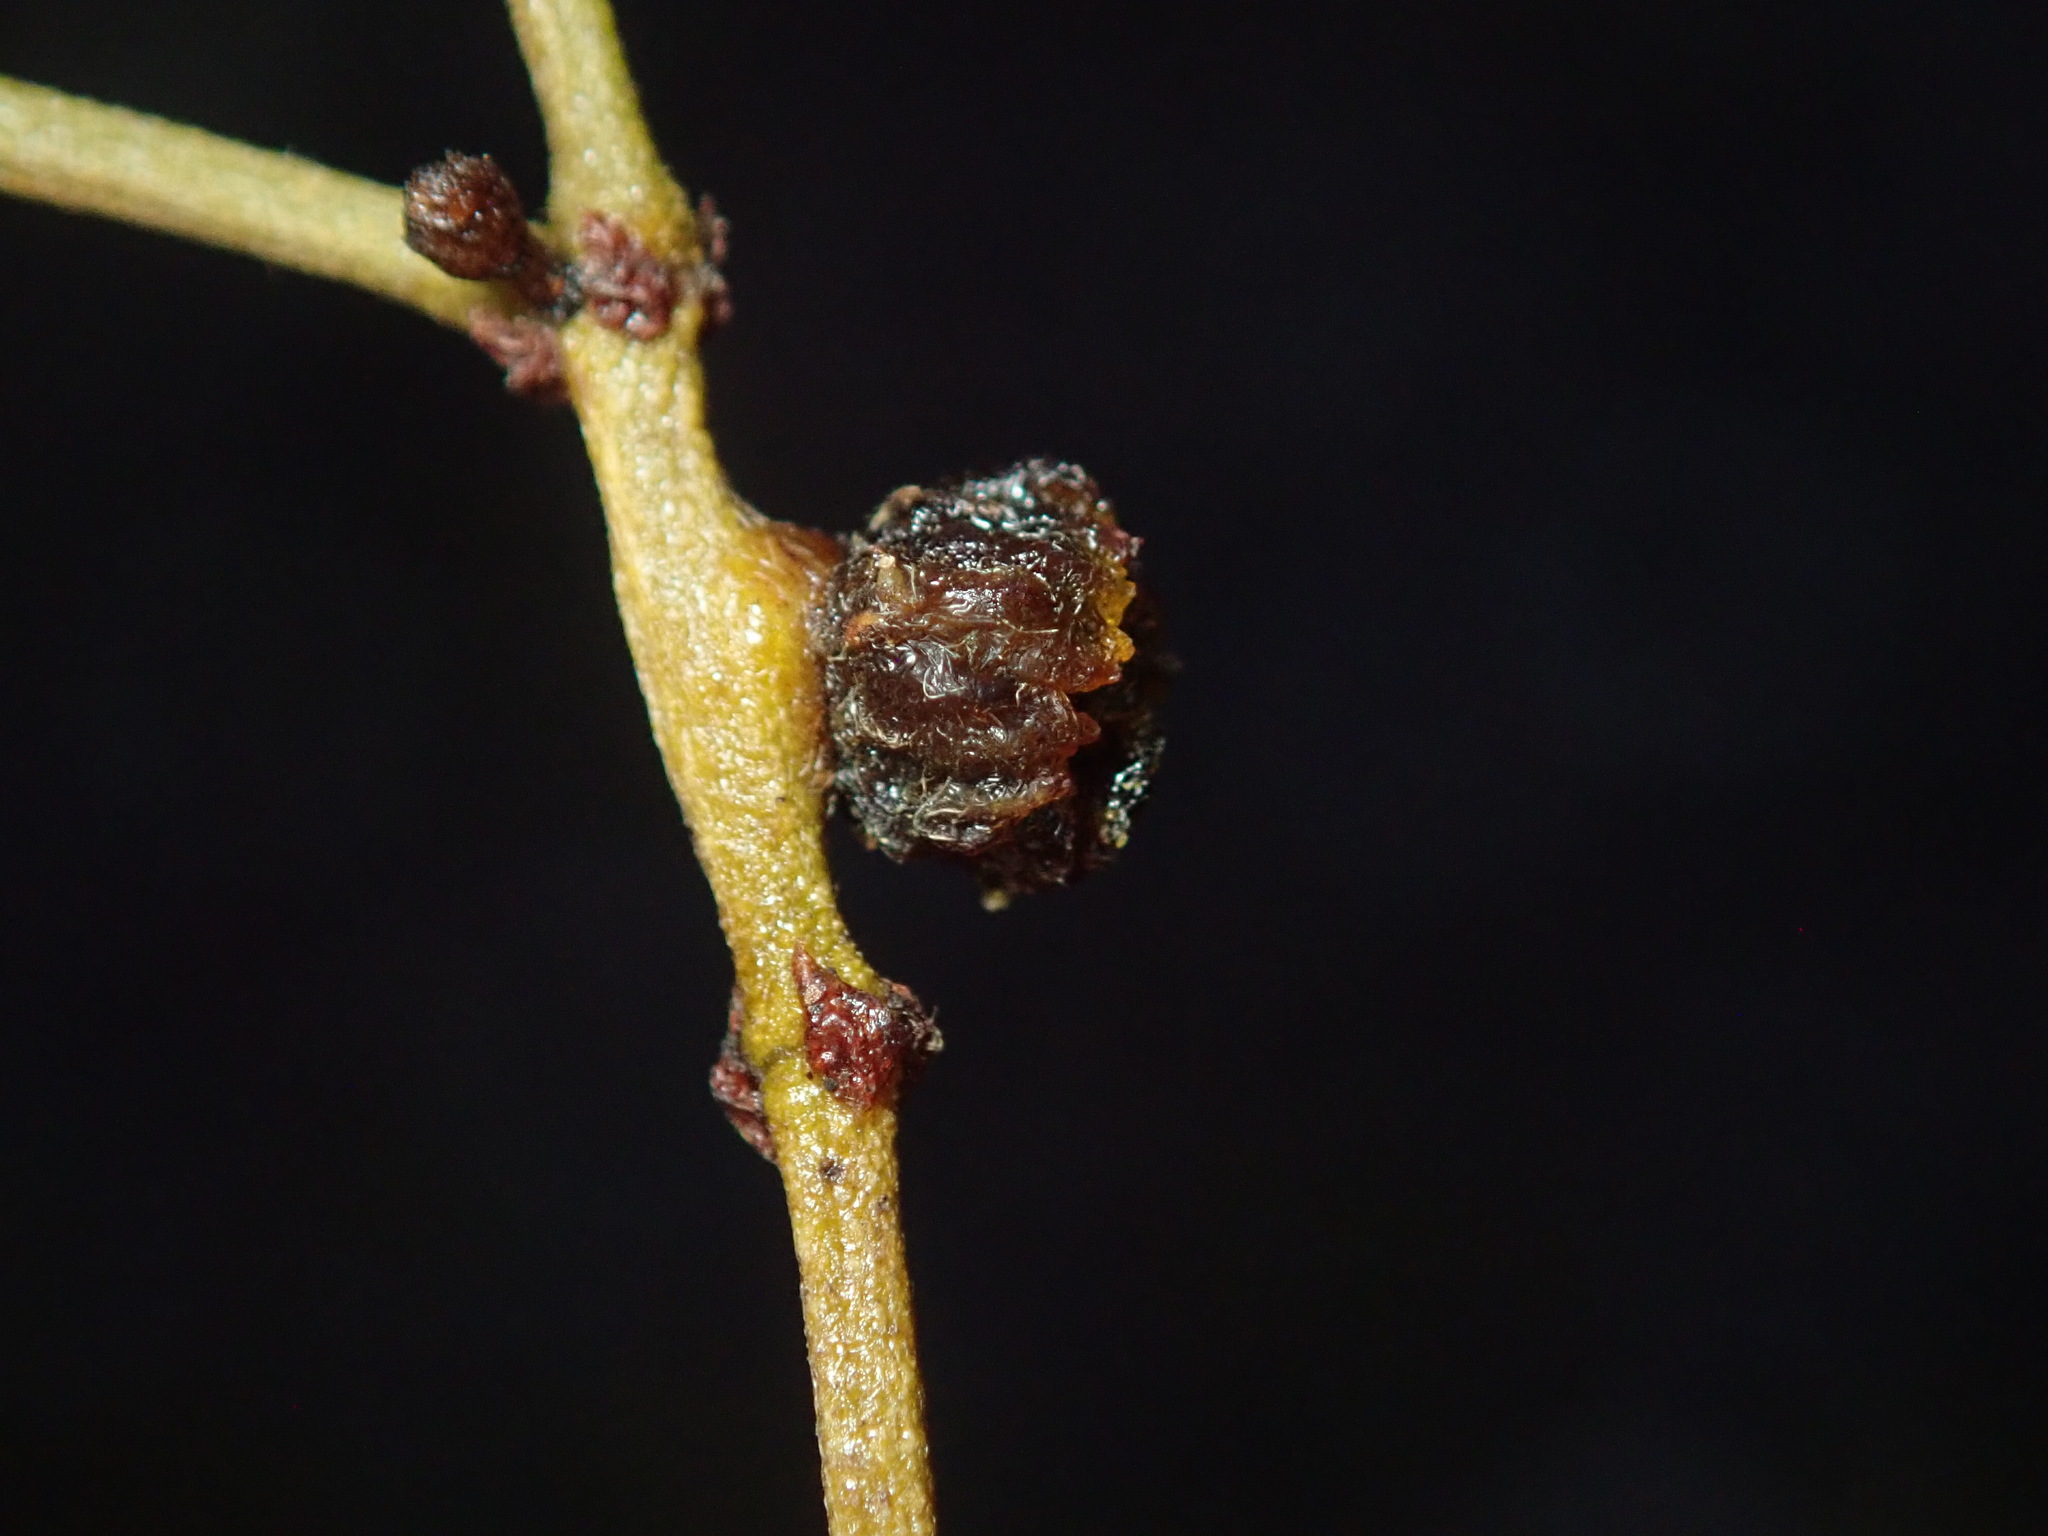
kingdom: Animalia
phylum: Arthropoda
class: Insecta
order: Diptera
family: Cecidomyiidae
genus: Asphondylia
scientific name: Asphondylia resinosa
